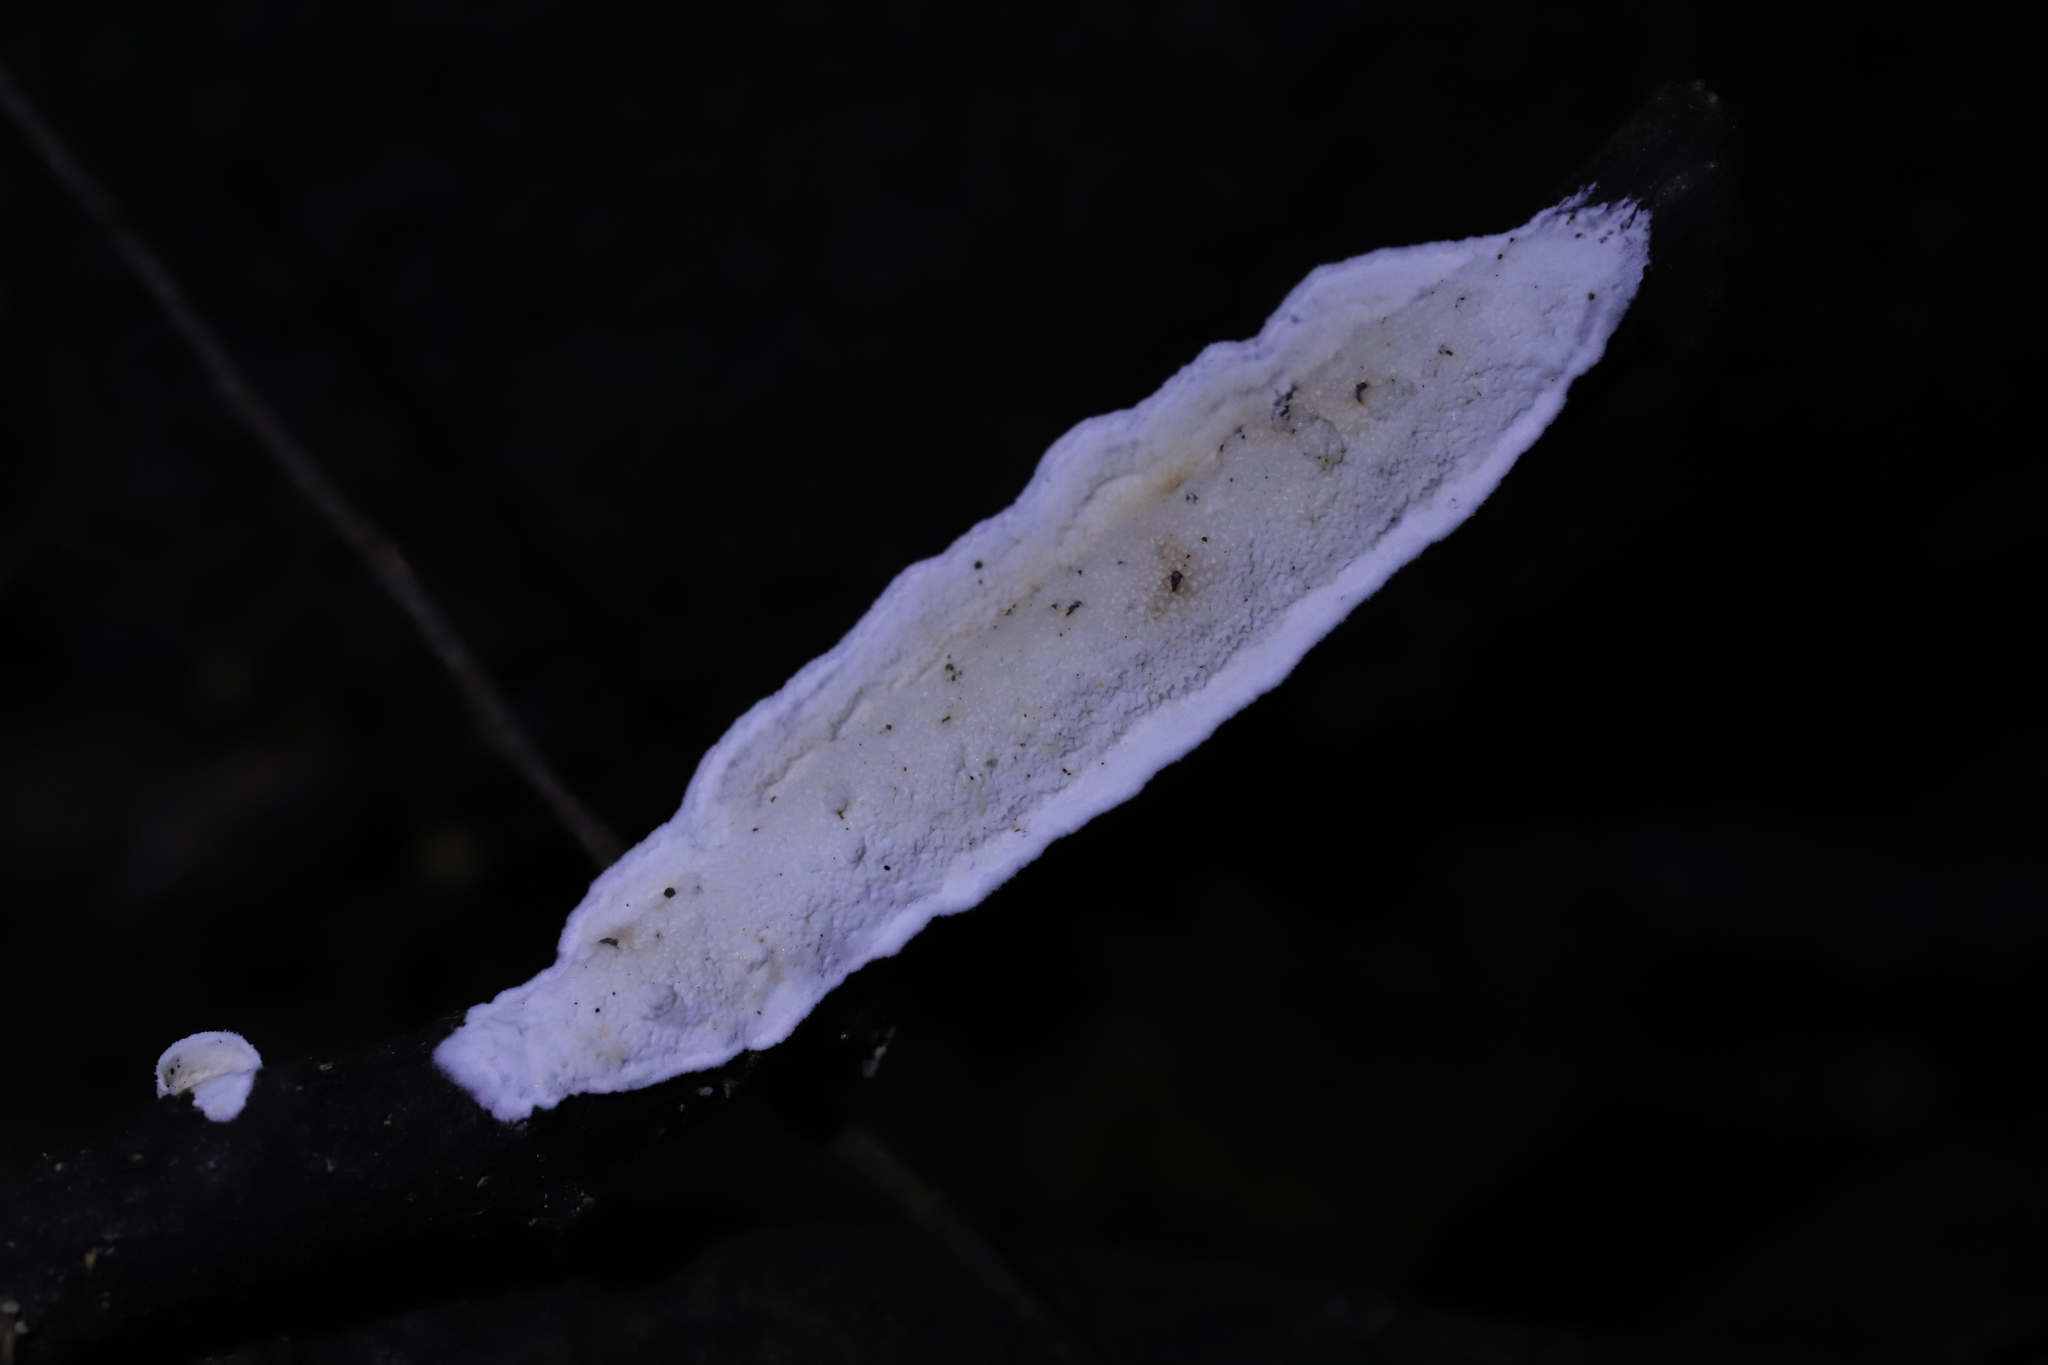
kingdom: Fungi
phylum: Basidiomycota
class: Agaricomycetes
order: Polyporales
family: Irpicaceae
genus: Byssomerulius
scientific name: Byssomerulius corium
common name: Netted crust
